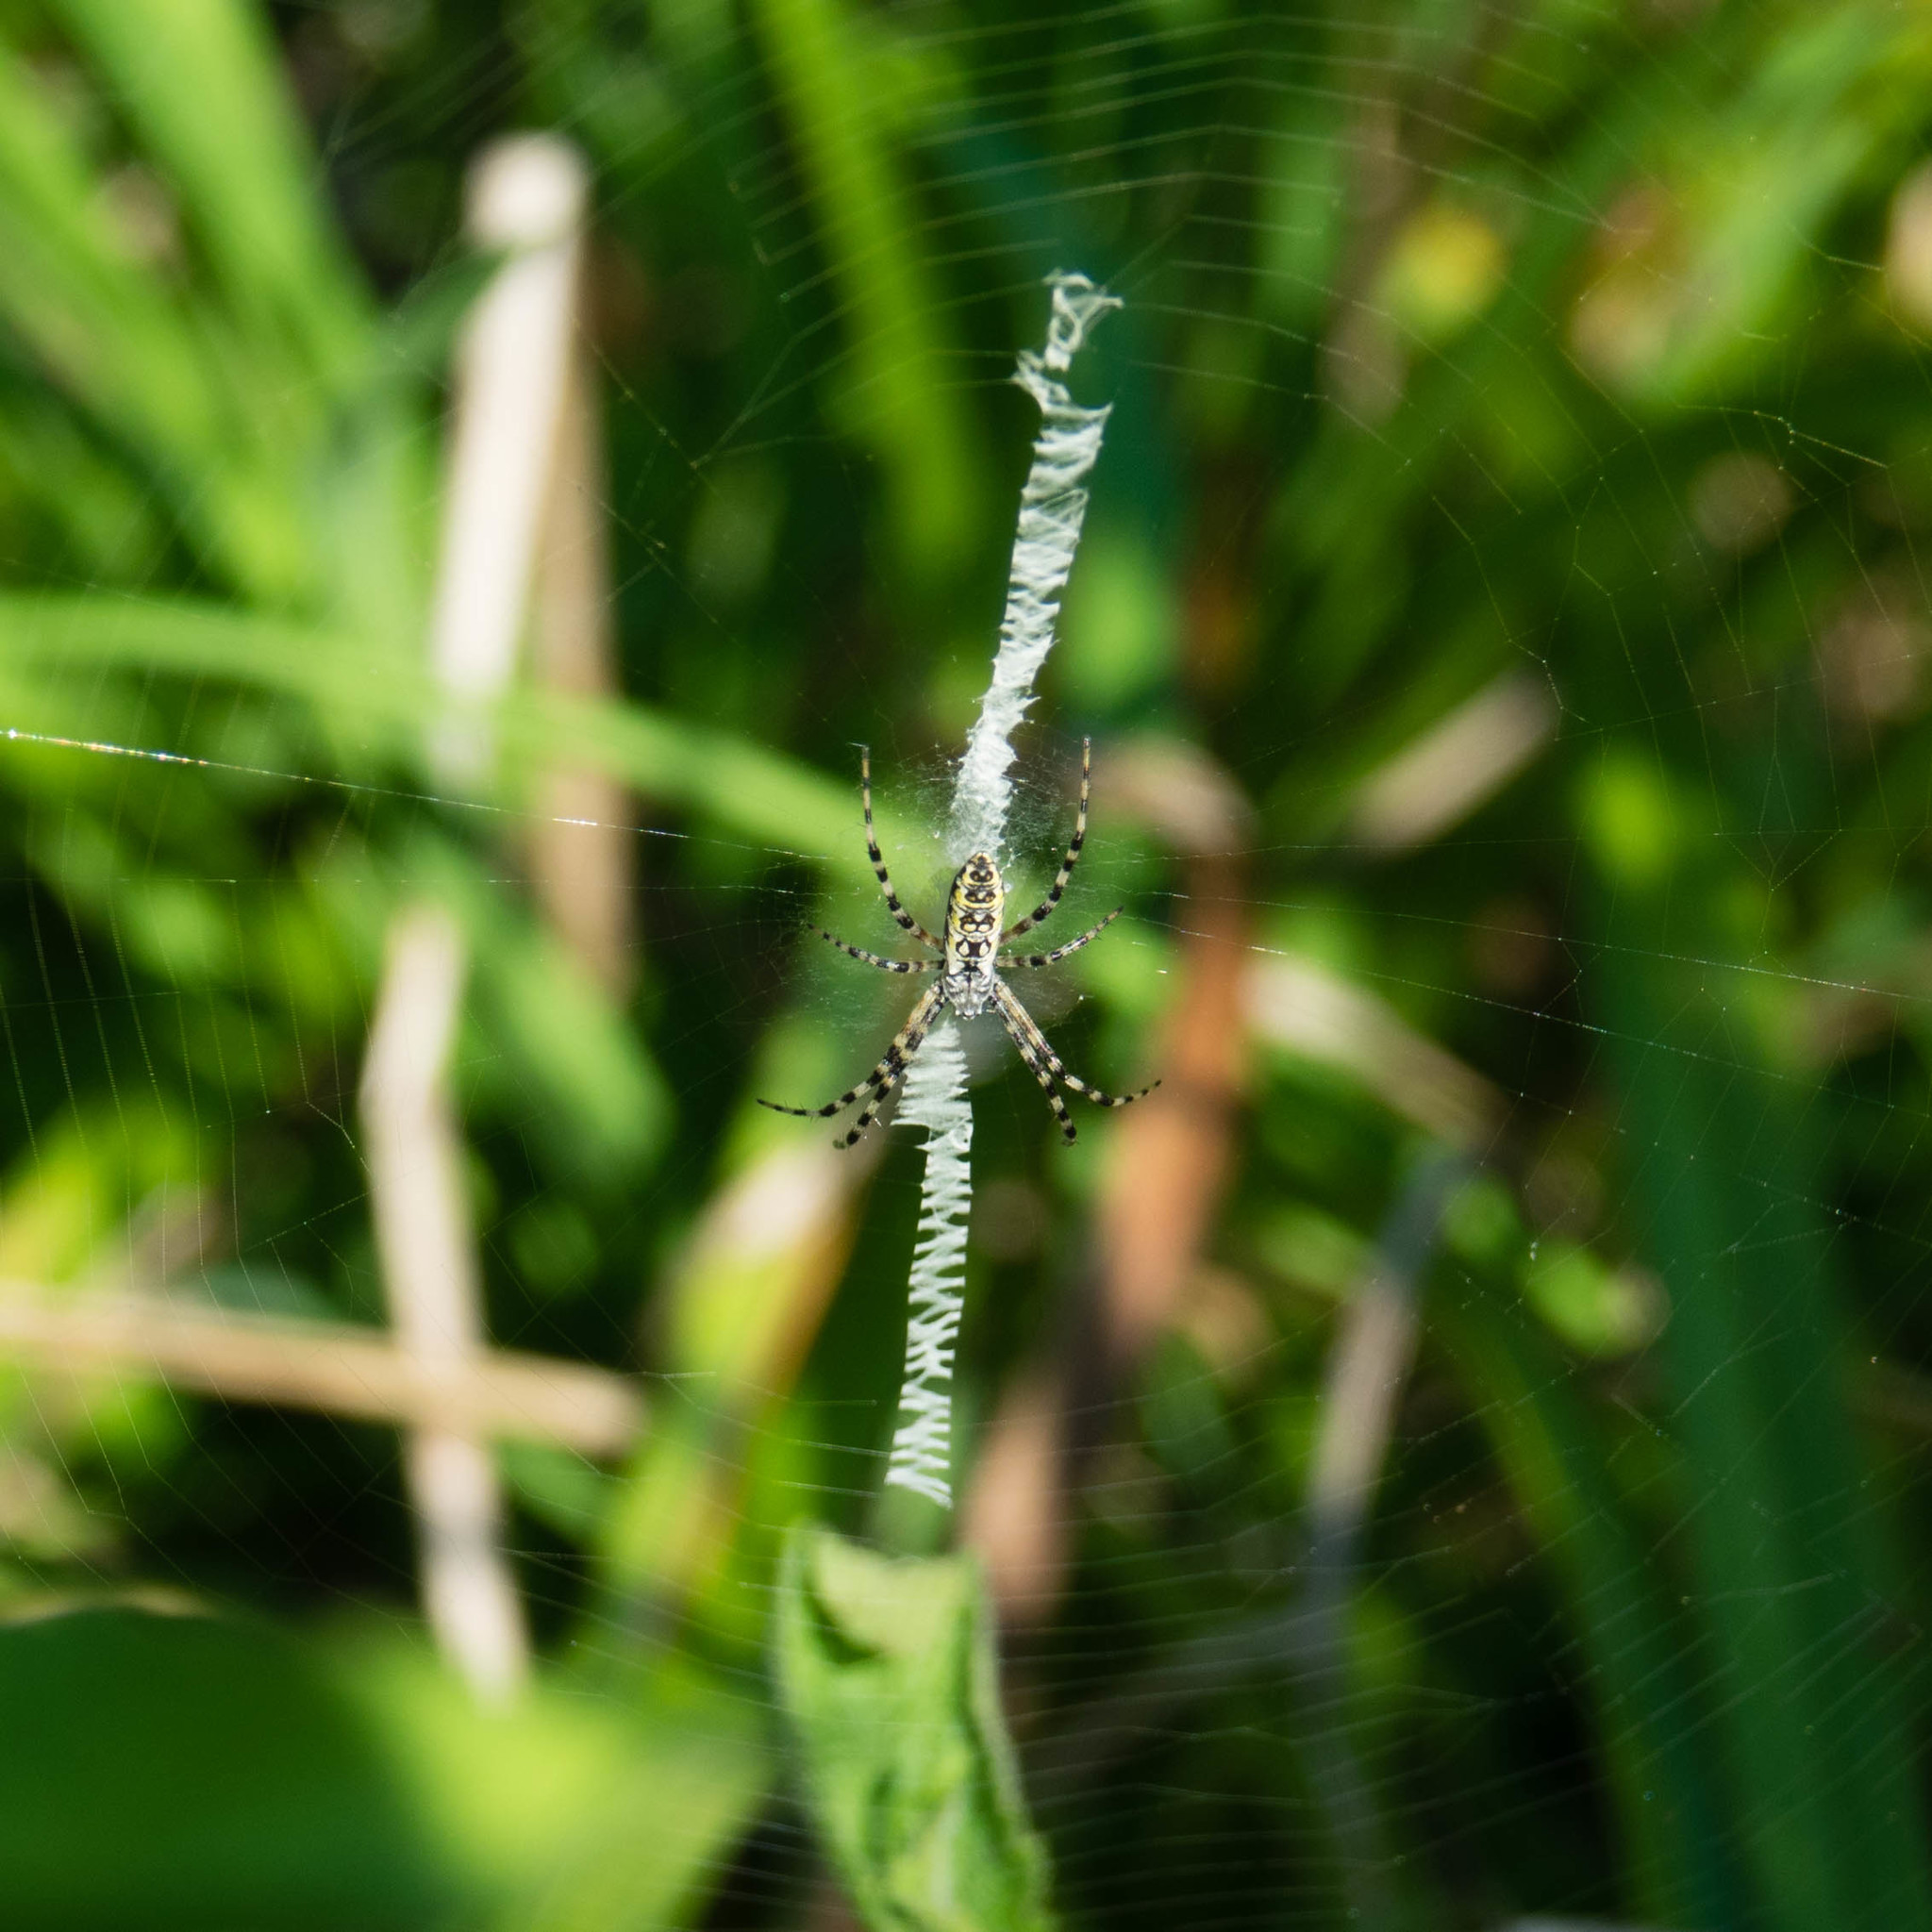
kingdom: Animalia
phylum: Arthropoda
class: Arachnida
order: Araneae
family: Araneidae
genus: Argiope
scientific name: Argiope aurantia
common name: Orb weavers
